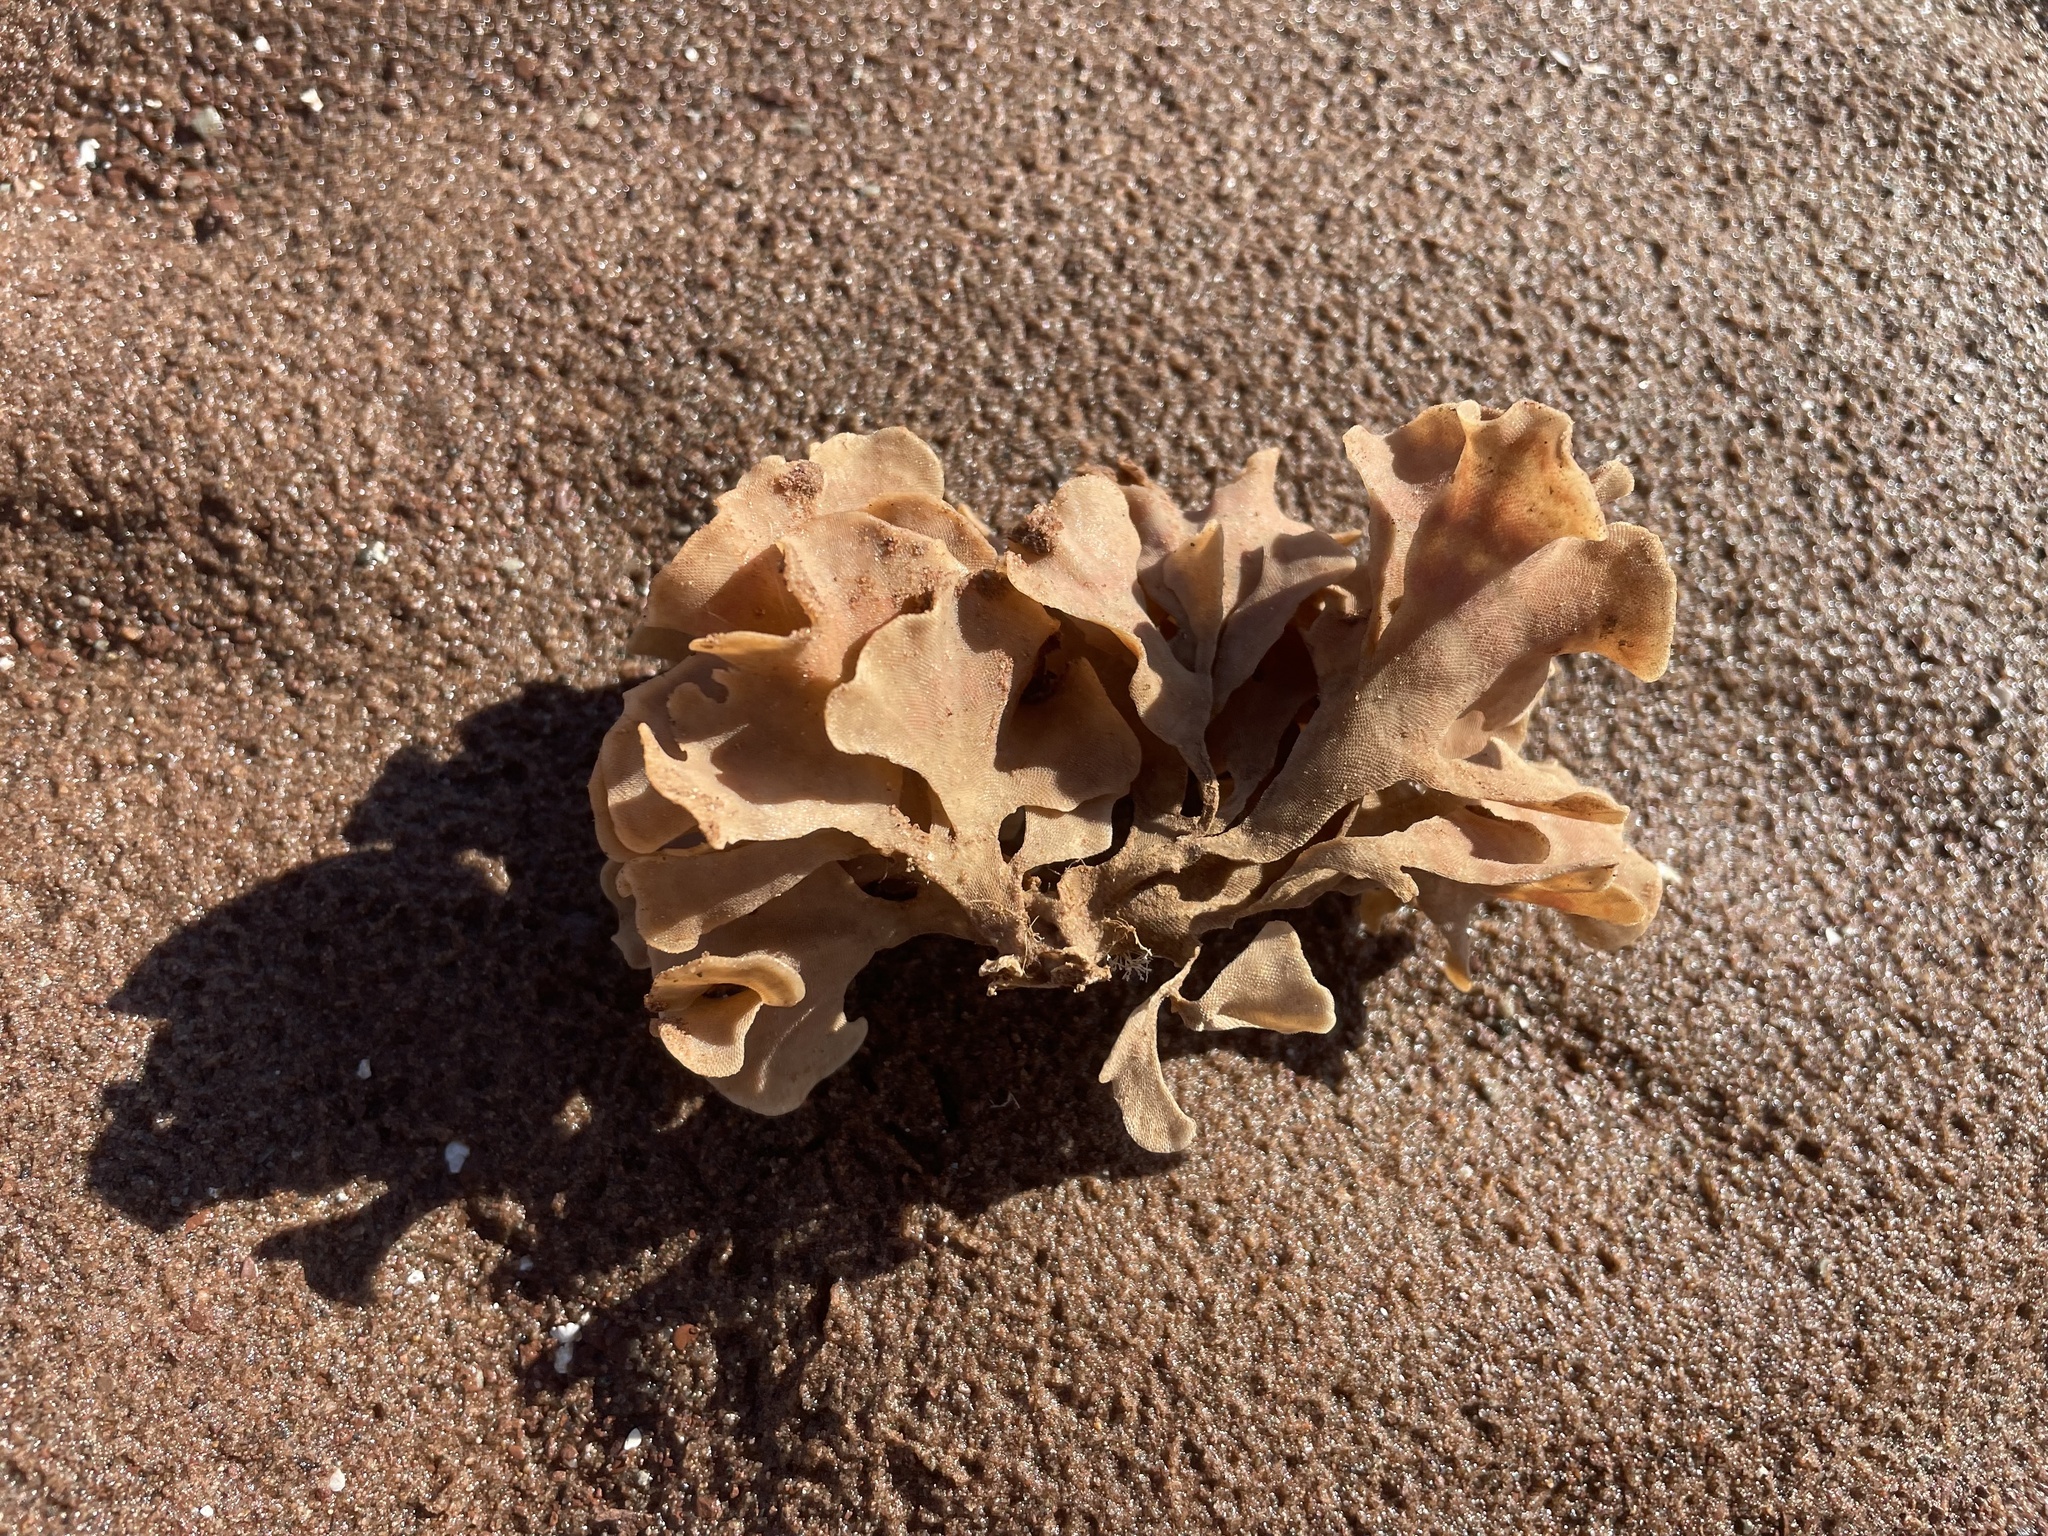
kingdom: Animalia
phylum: Bryozoa
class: Gymnolaemata
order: Cheilostomatida
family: Flustridae
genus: Flustra
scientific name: Flustra foliacea
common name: Hornwrack
